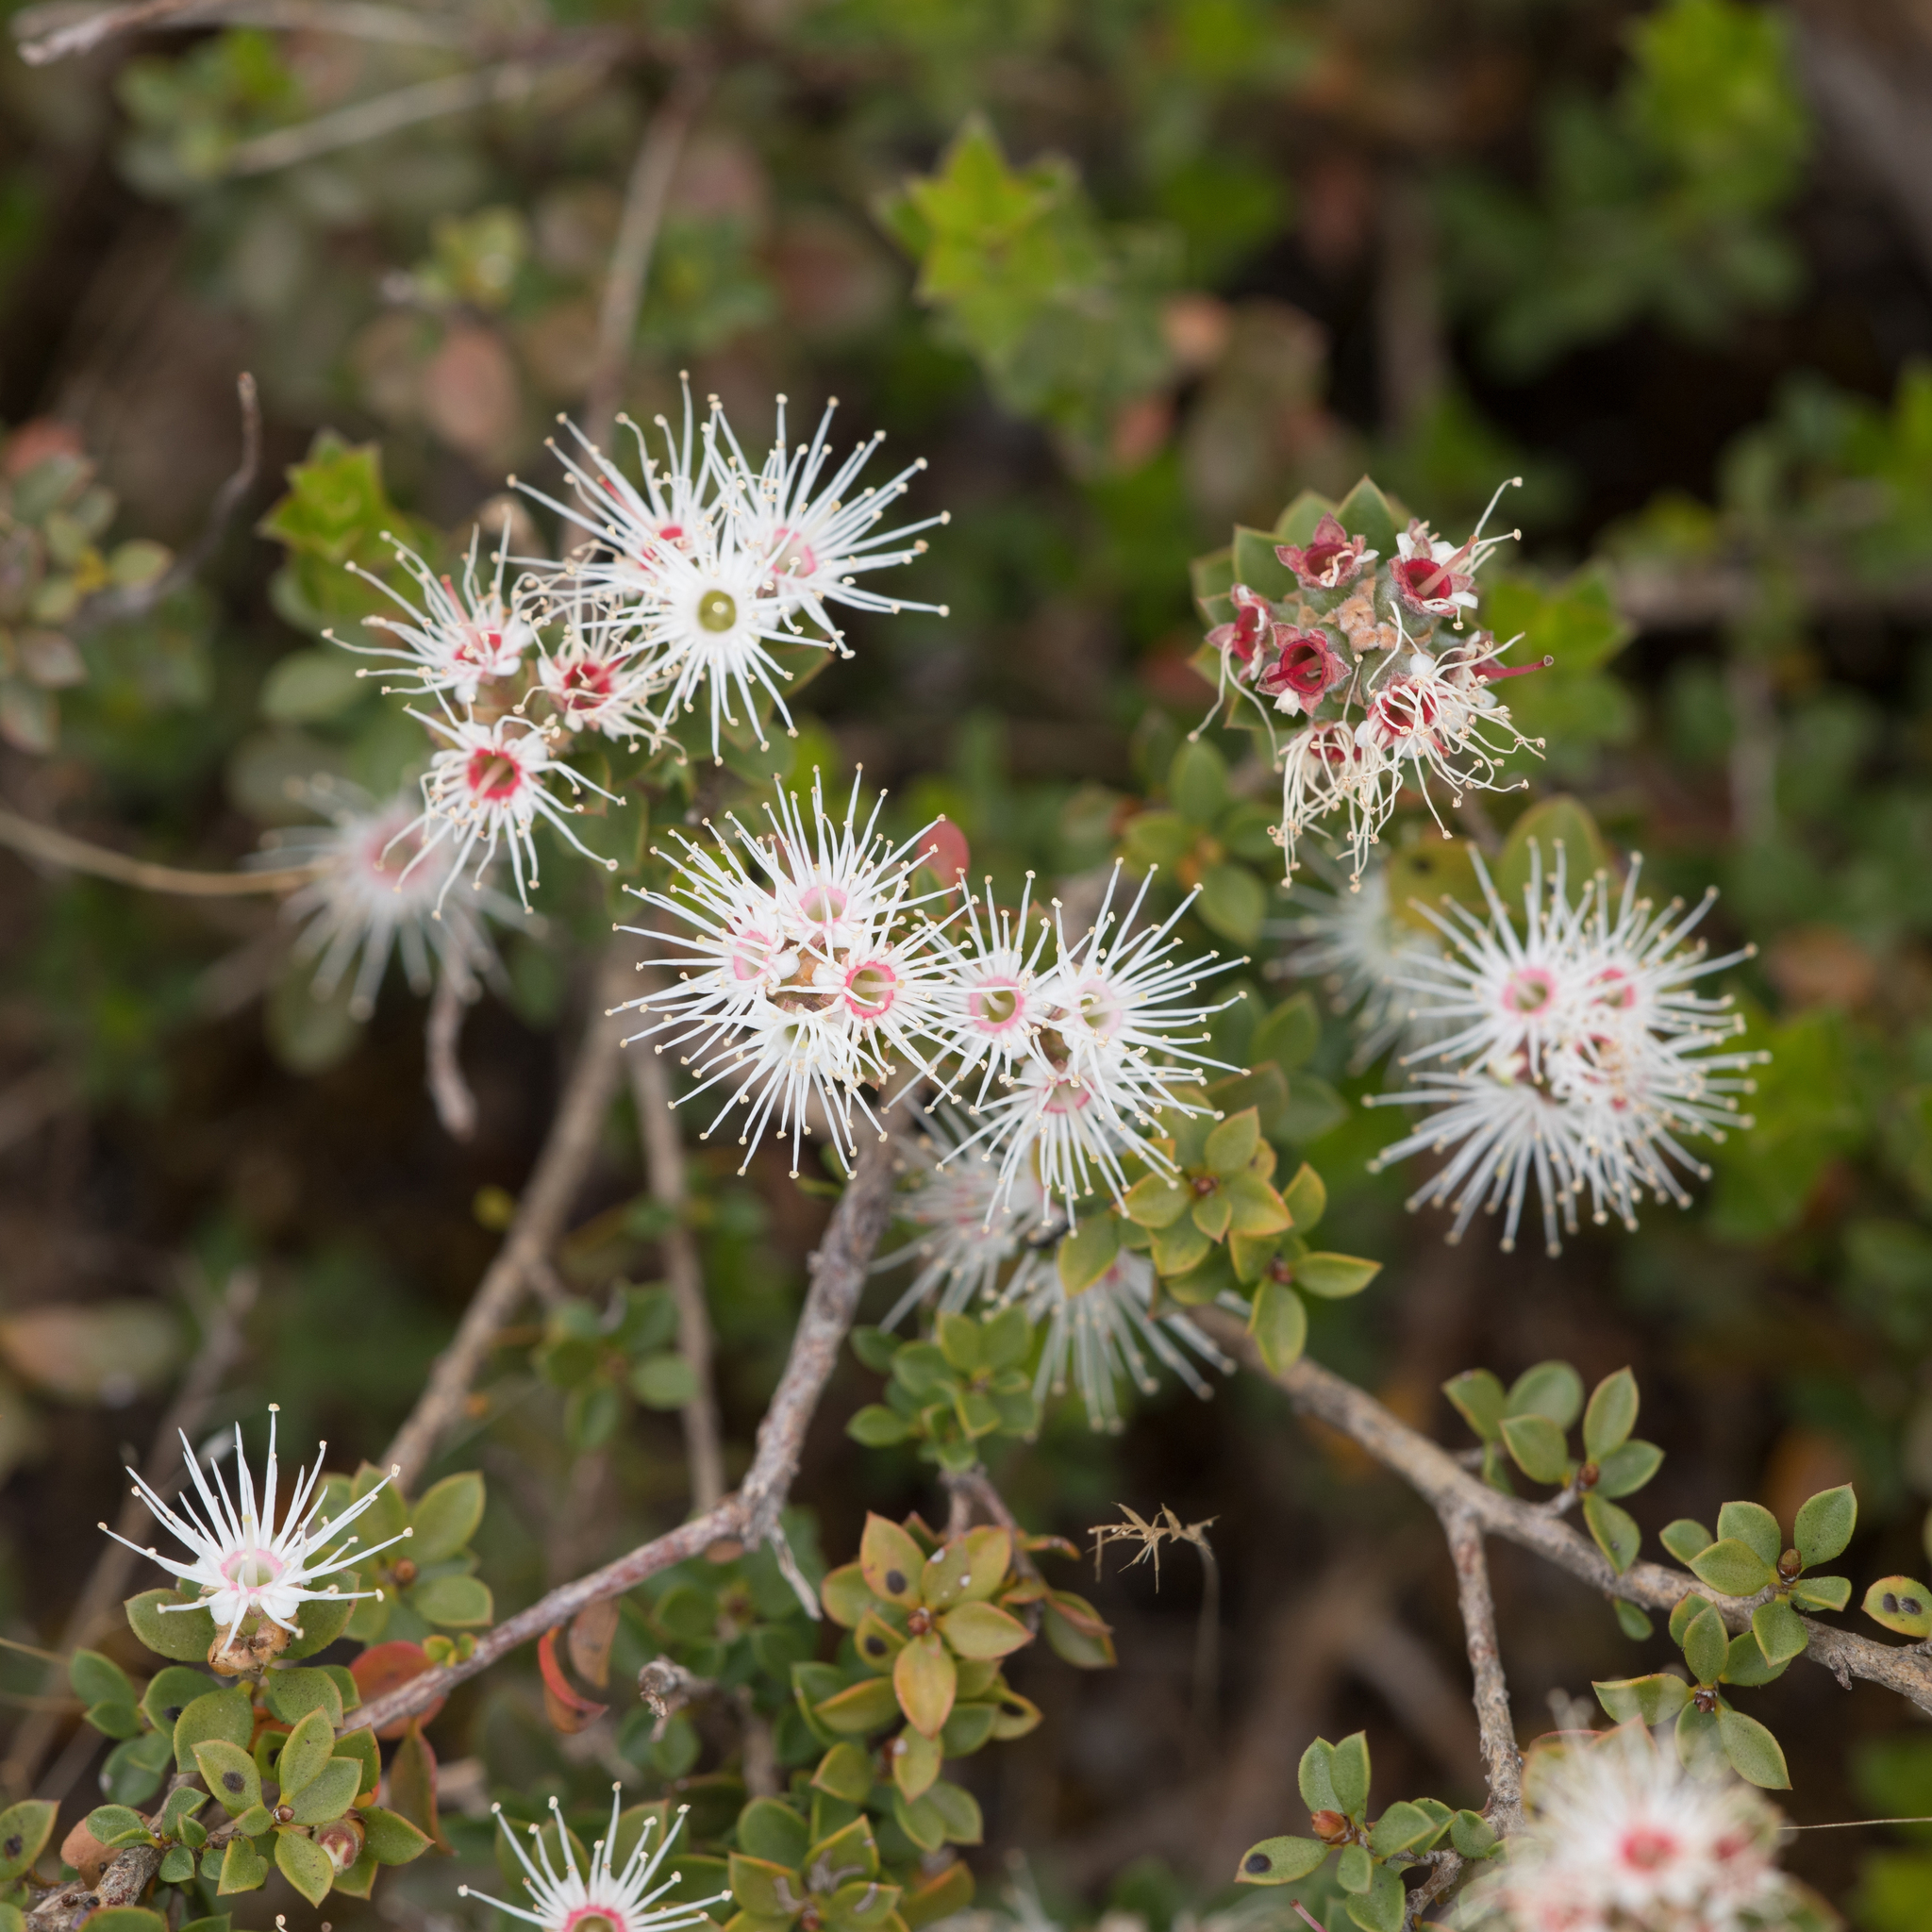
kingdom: Plantae
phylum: Tracheophyta
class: Magnoliopsida
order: Myrtales
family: Myrtaceae
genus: Kunzea
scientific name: Kunzea pomifera
